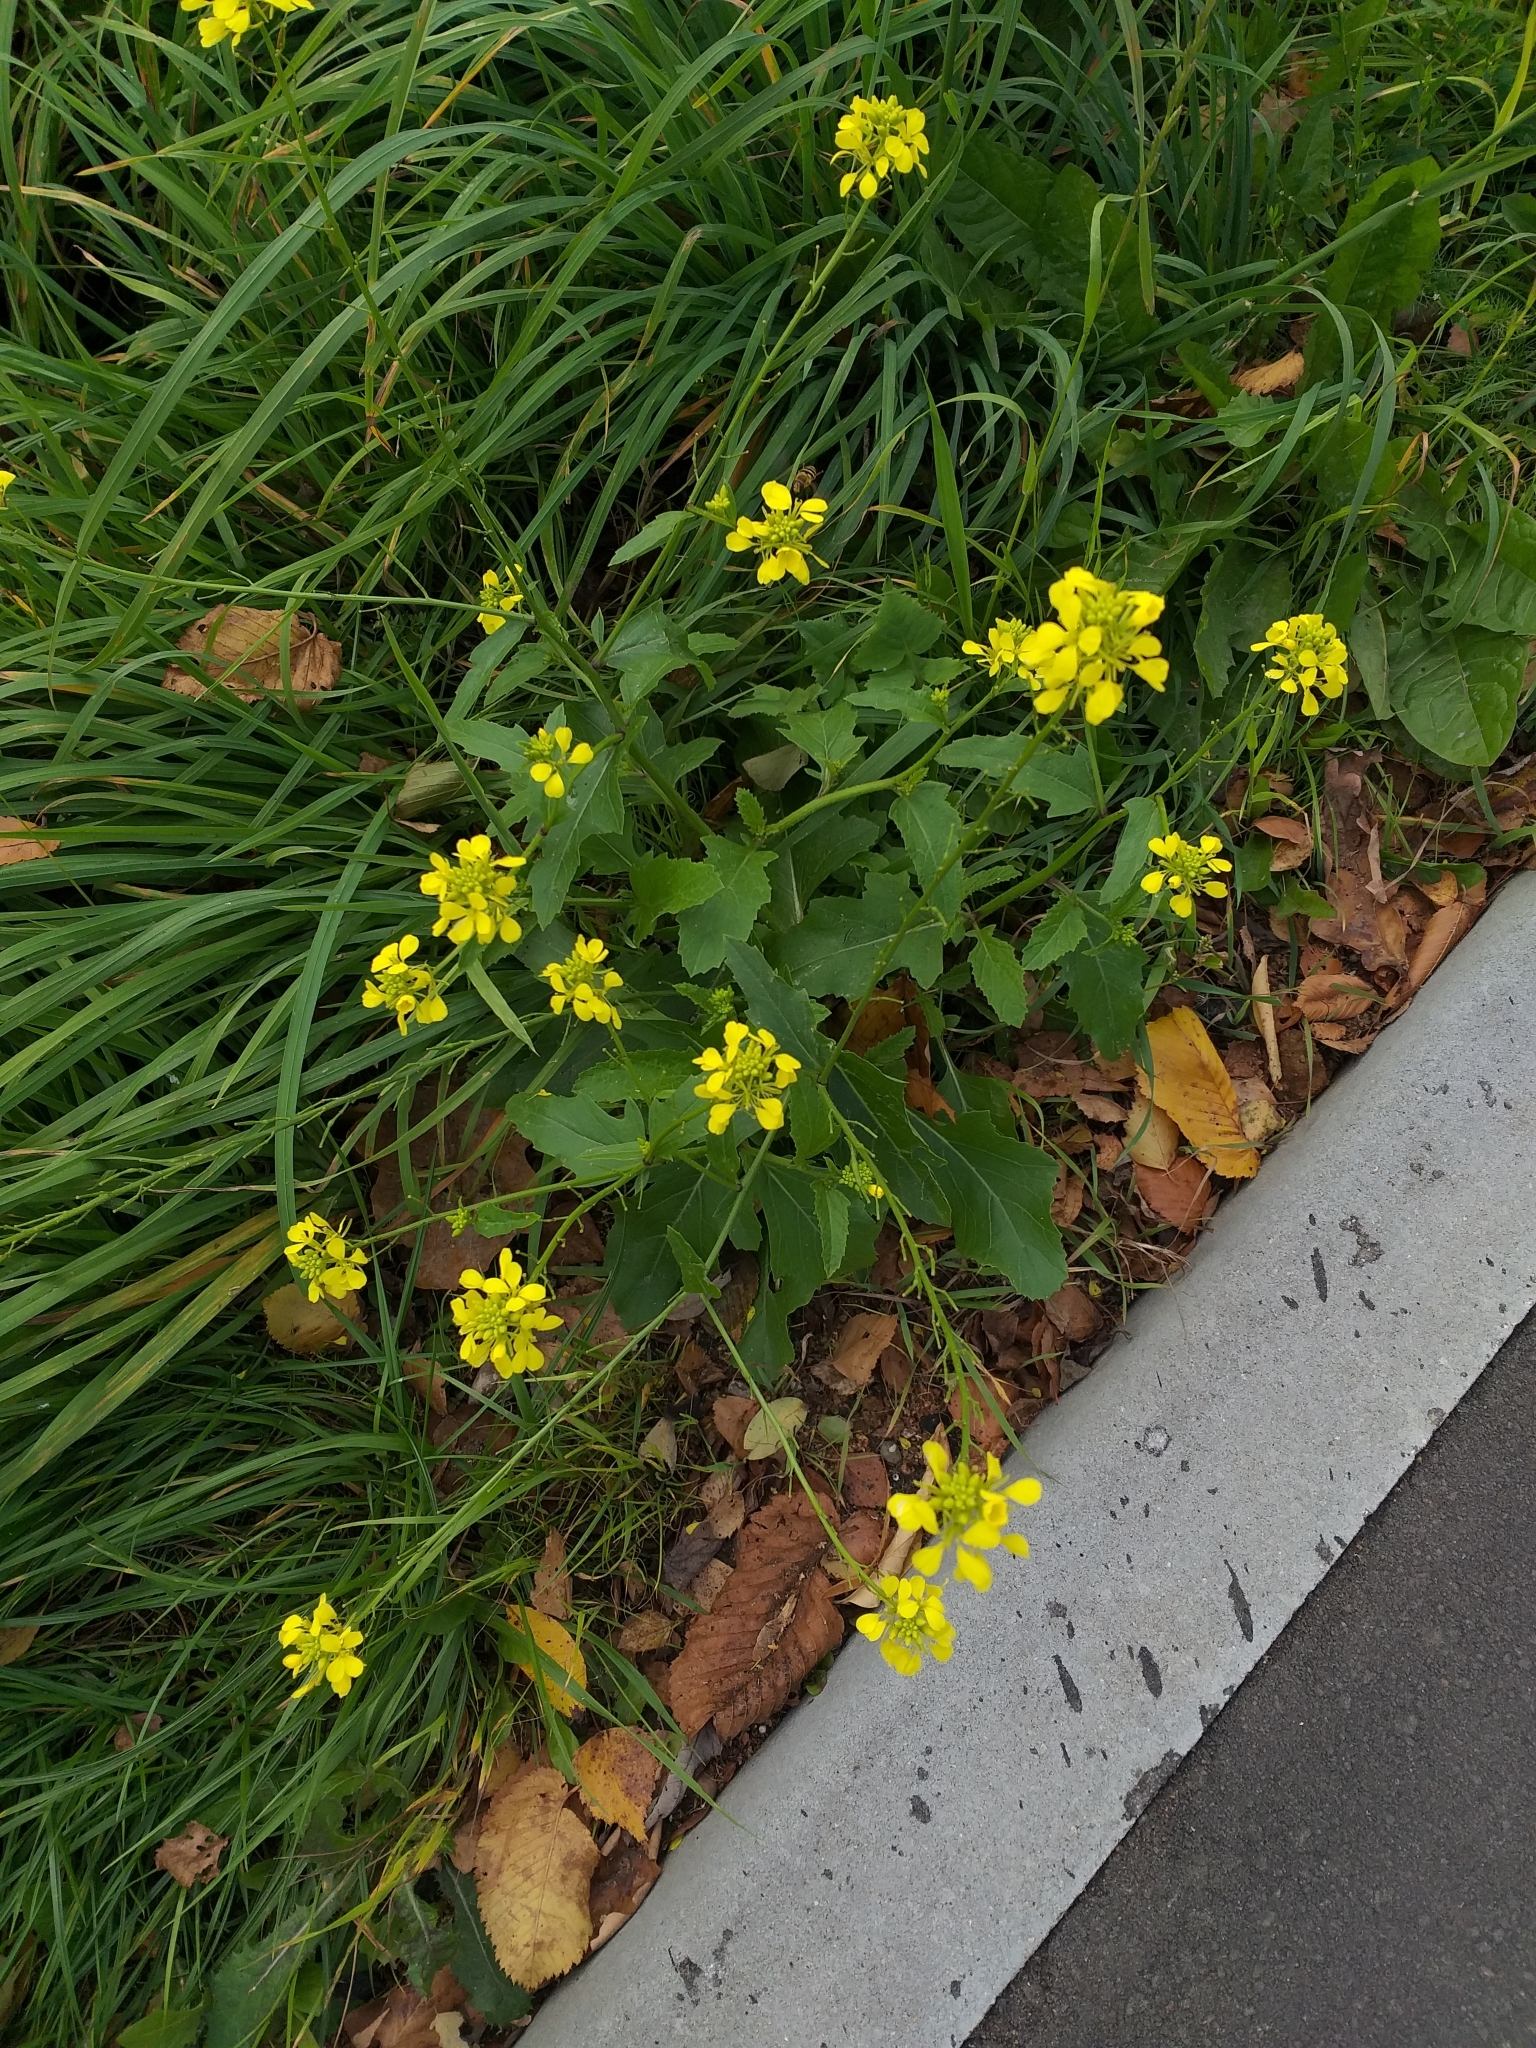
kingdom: Plantae
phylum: Tracheophyta
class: Magnoliopsida
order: Brassicales
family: Brassicaceae
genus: Sinapis
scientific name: Sinapis arvensis
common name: Charlock
